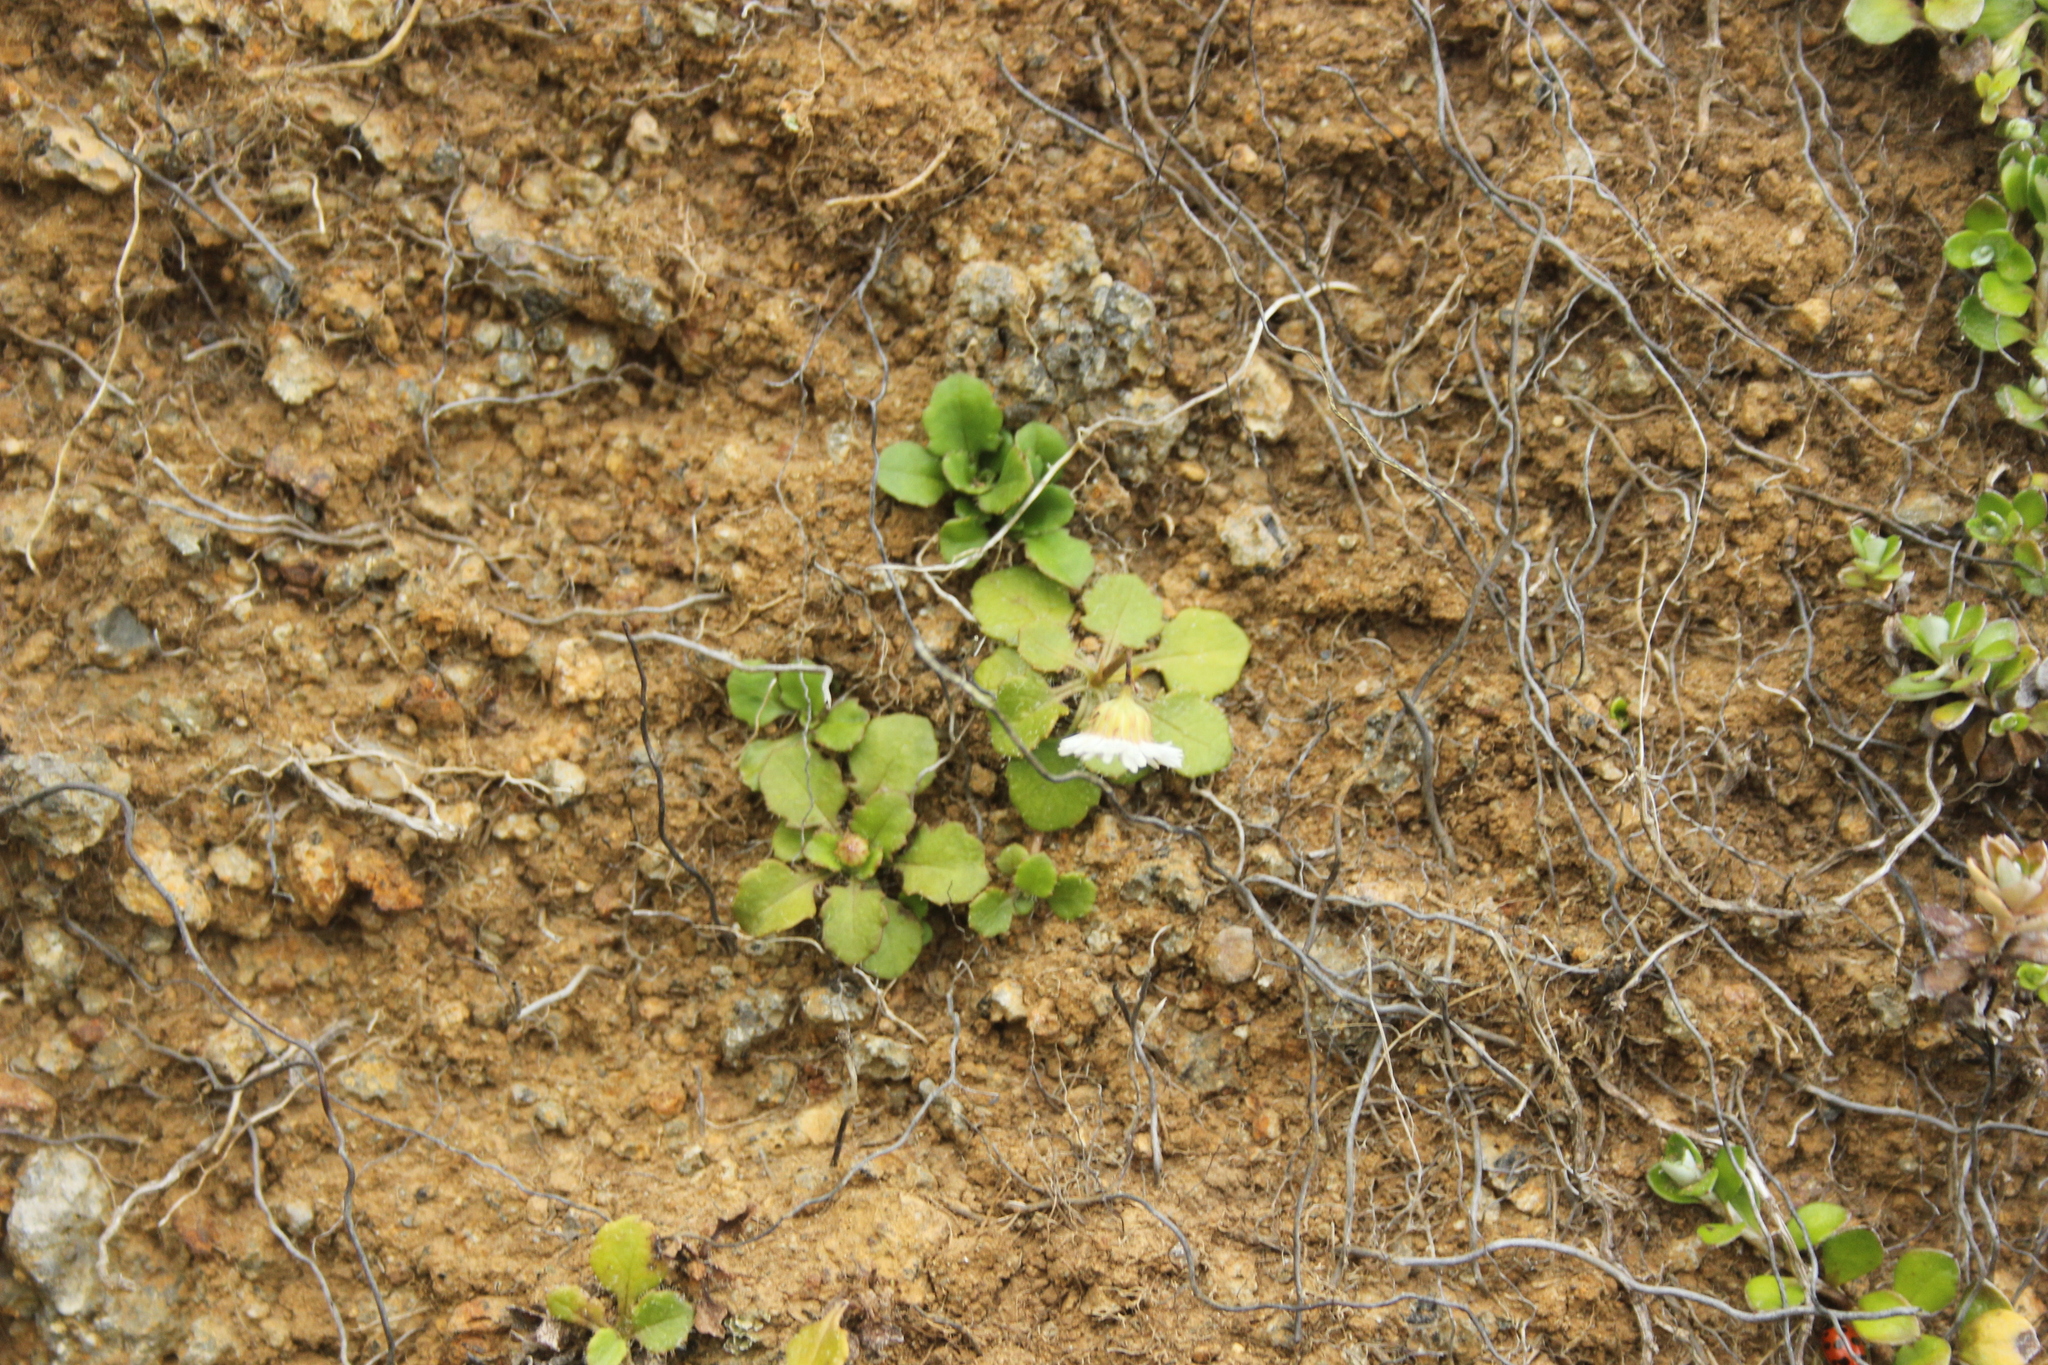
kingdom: Plantae
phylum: Tracheophyta
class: Magnoliopsida
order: Asterales
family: Asteraceae
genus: Lagenophora
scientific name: Lagenophora pumila
